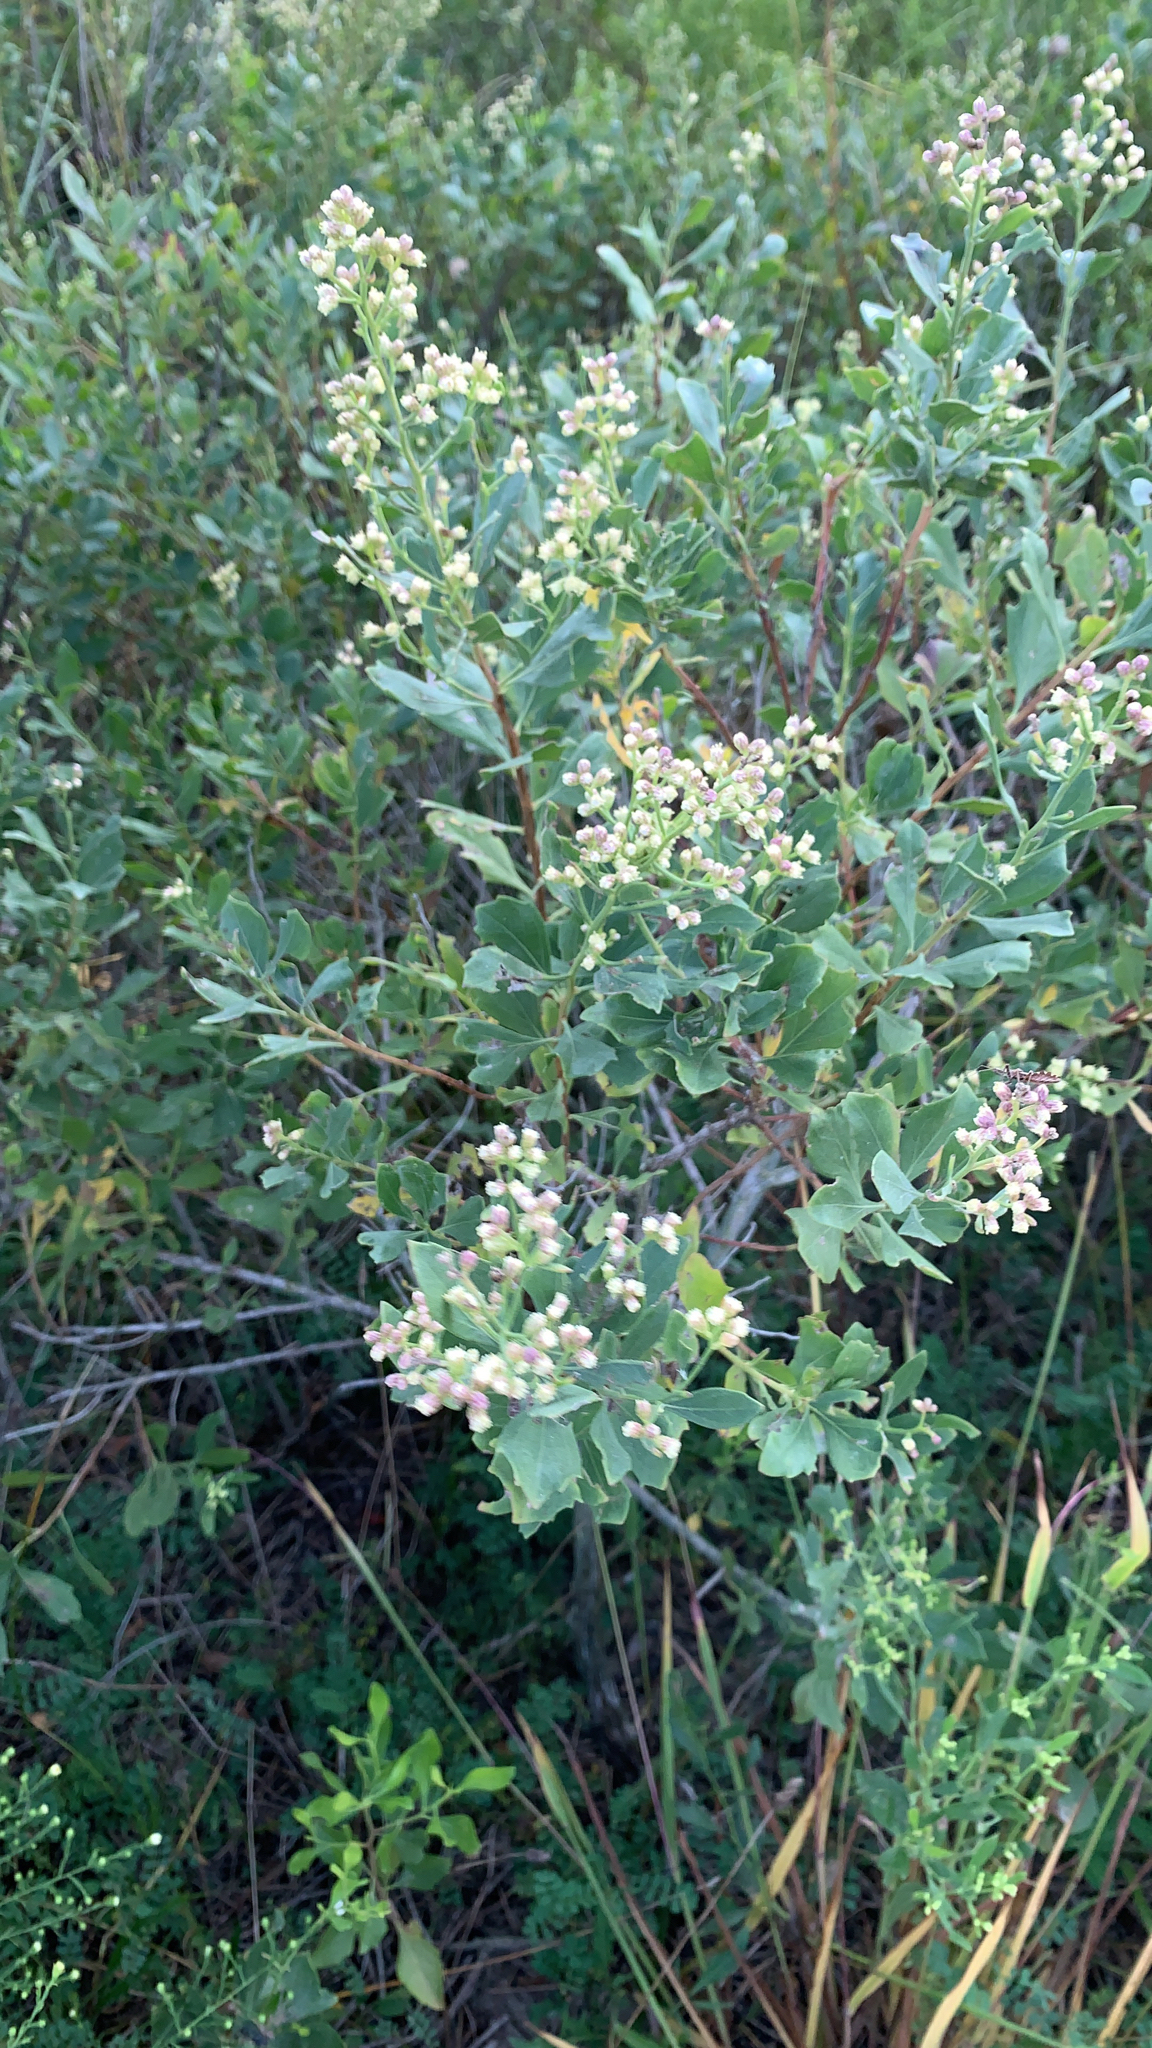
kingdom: Plantae
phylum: Tracheophyta
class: Magnoliopsida
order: Asterales
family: Asteraceae
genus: Baccharis
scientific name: Baccharis halimifolia
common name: Eastern baccharis
